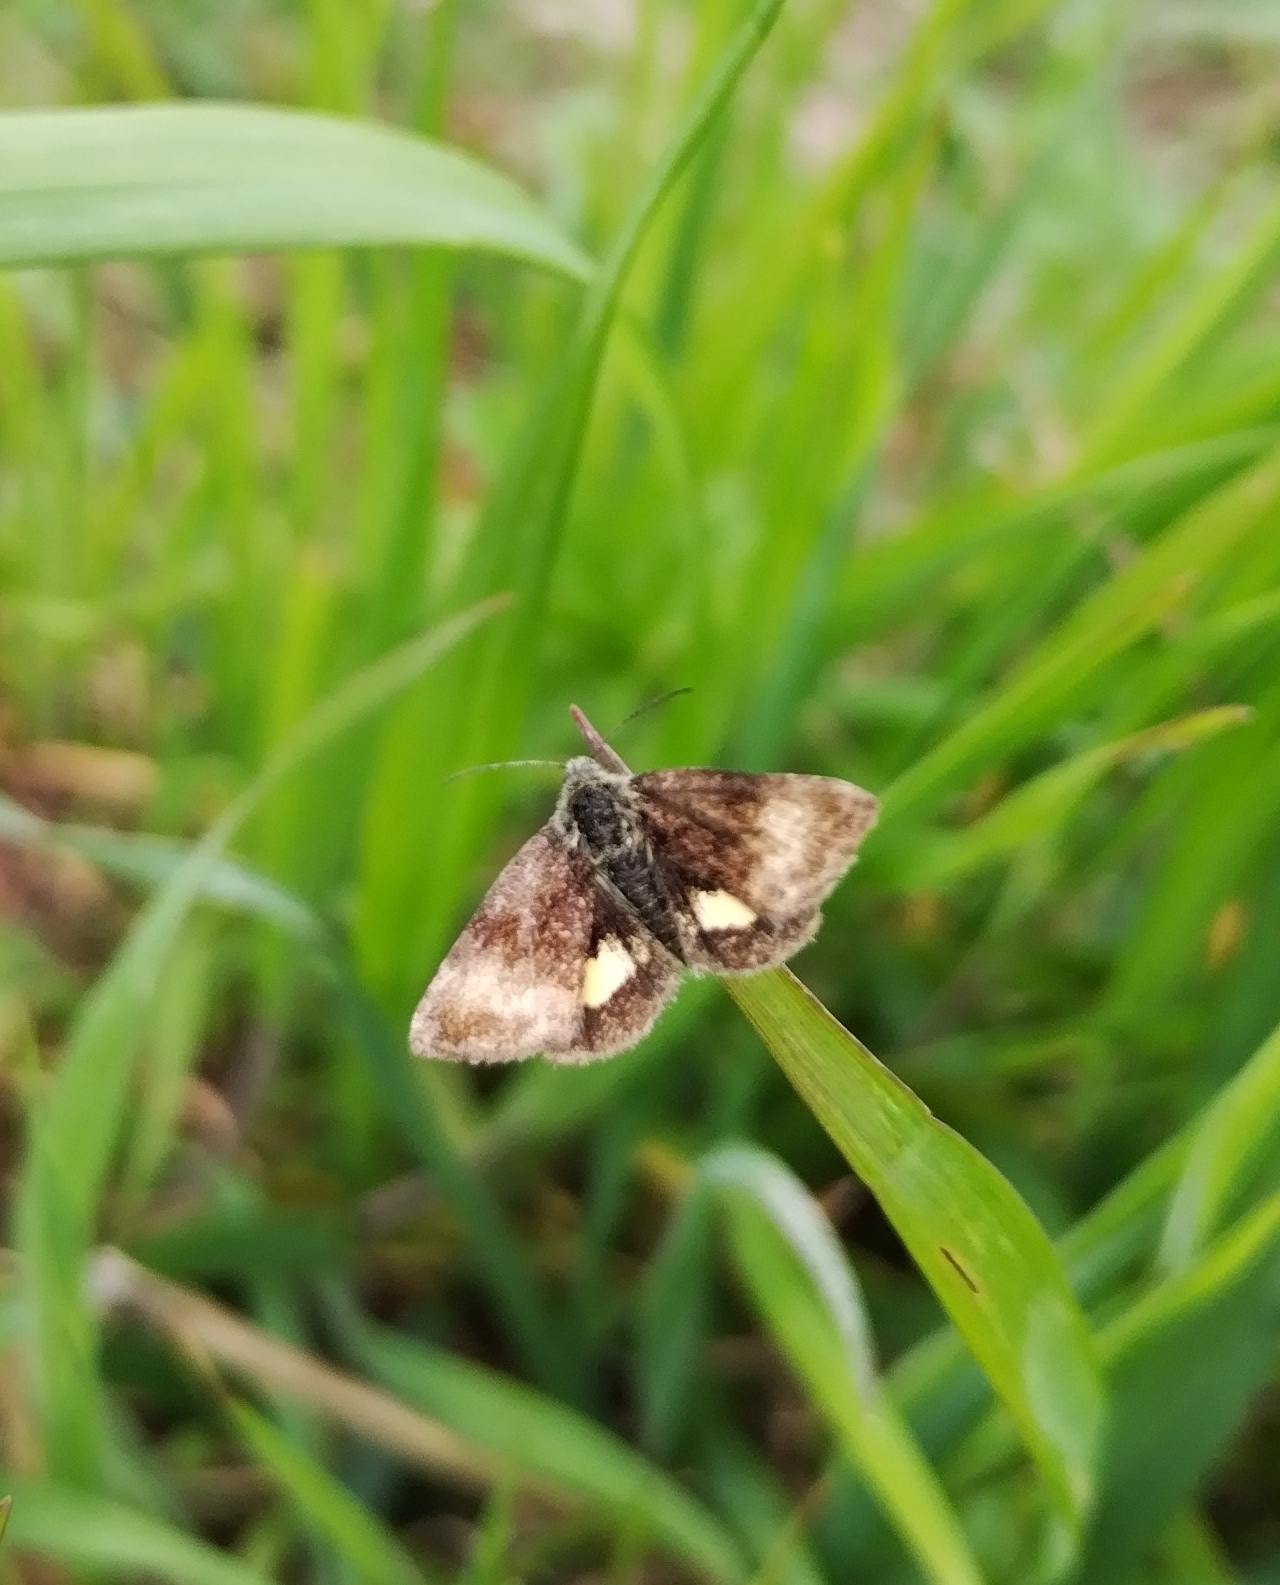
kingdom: Animalia
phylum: Arthropoda
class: Insecta
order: Lepidoptera
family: Noctuidae
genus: Panemeria
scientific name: Panemeria tenebrata
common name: Small yellow underwing
